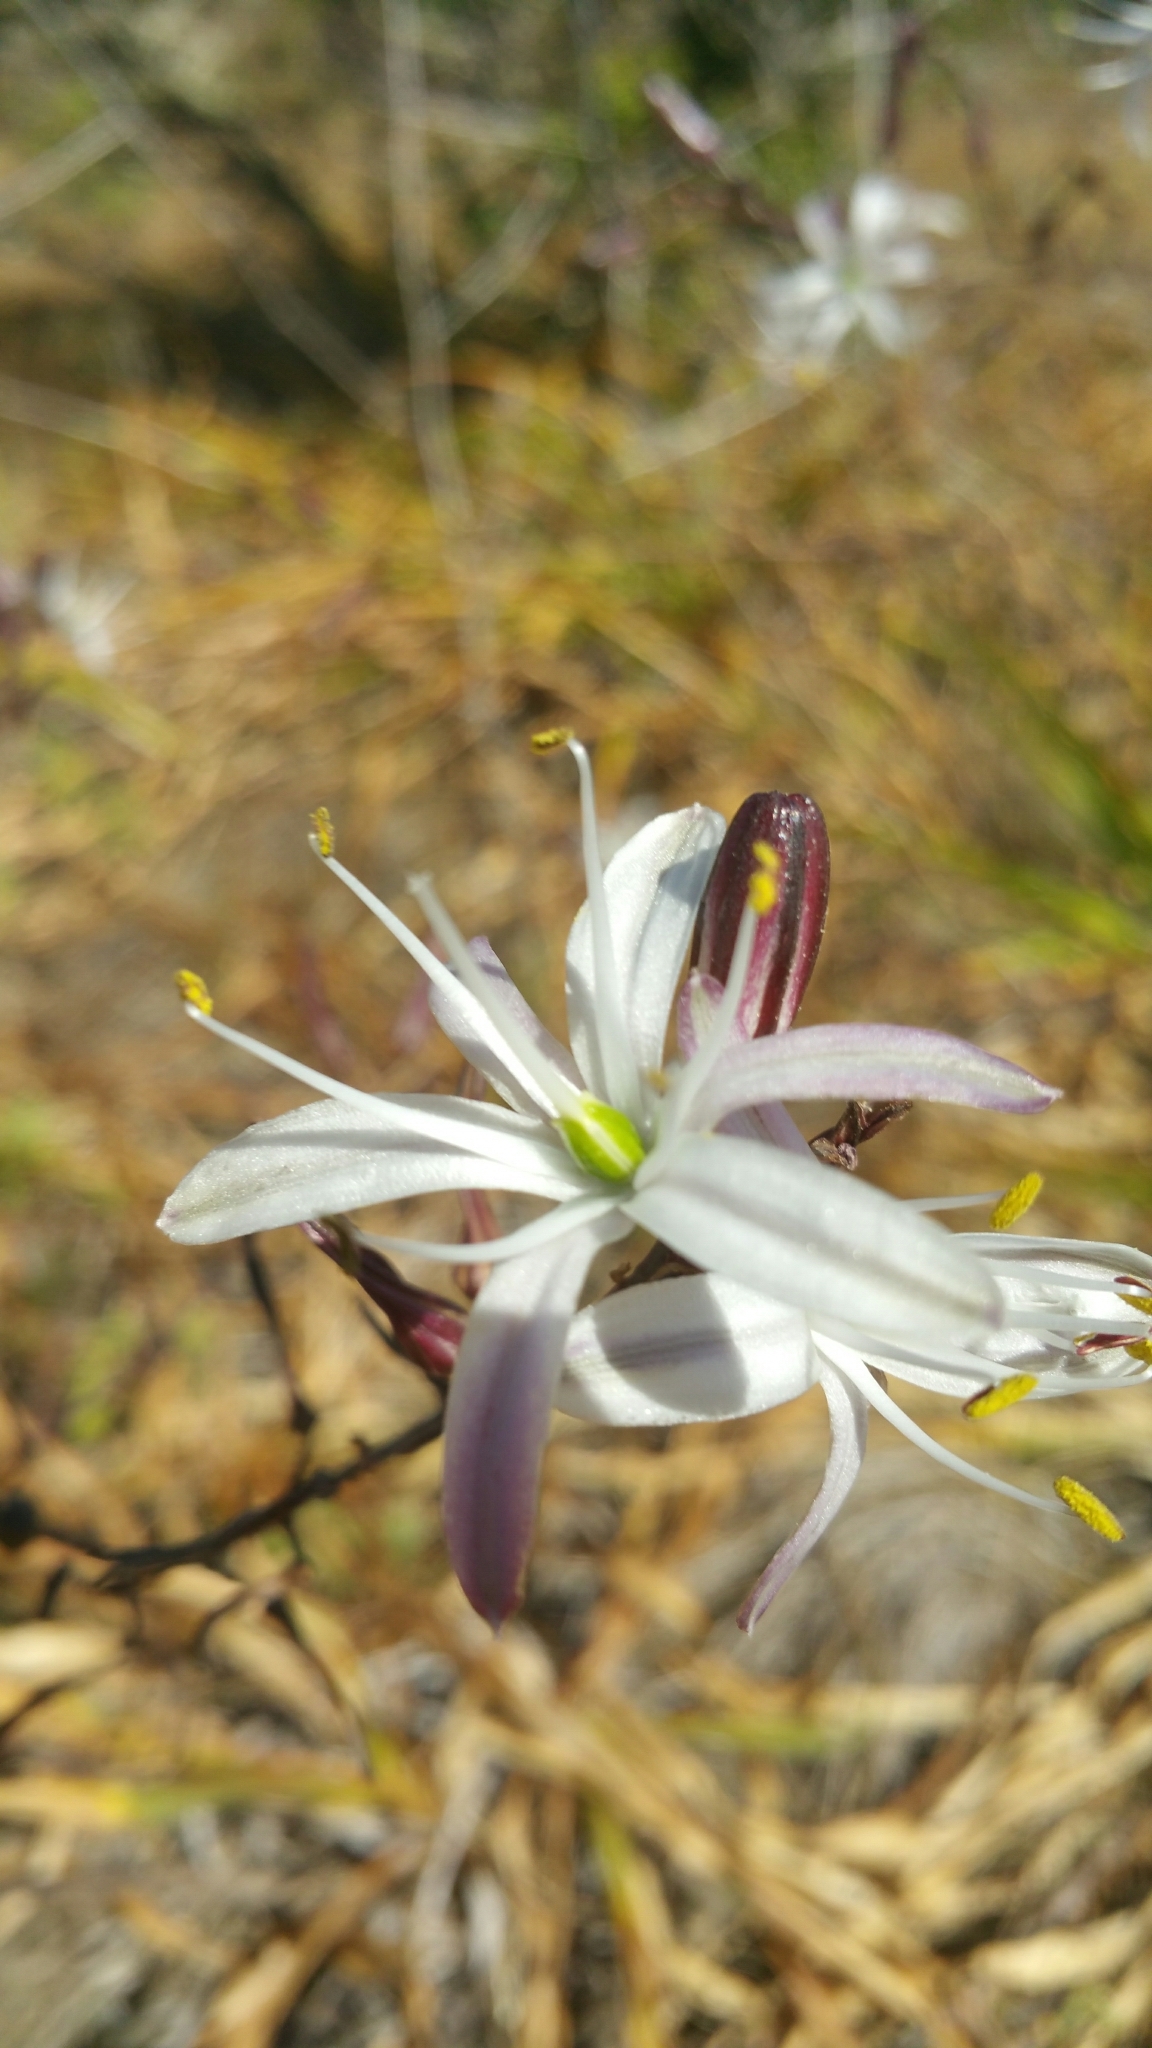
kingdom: Plantae
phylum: Tracheophyta
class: Liliopsida
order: Asparagales
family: Asparagaceae
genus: Chlorogalum
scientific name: Chlorogalum pomeridianum
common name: Amole
